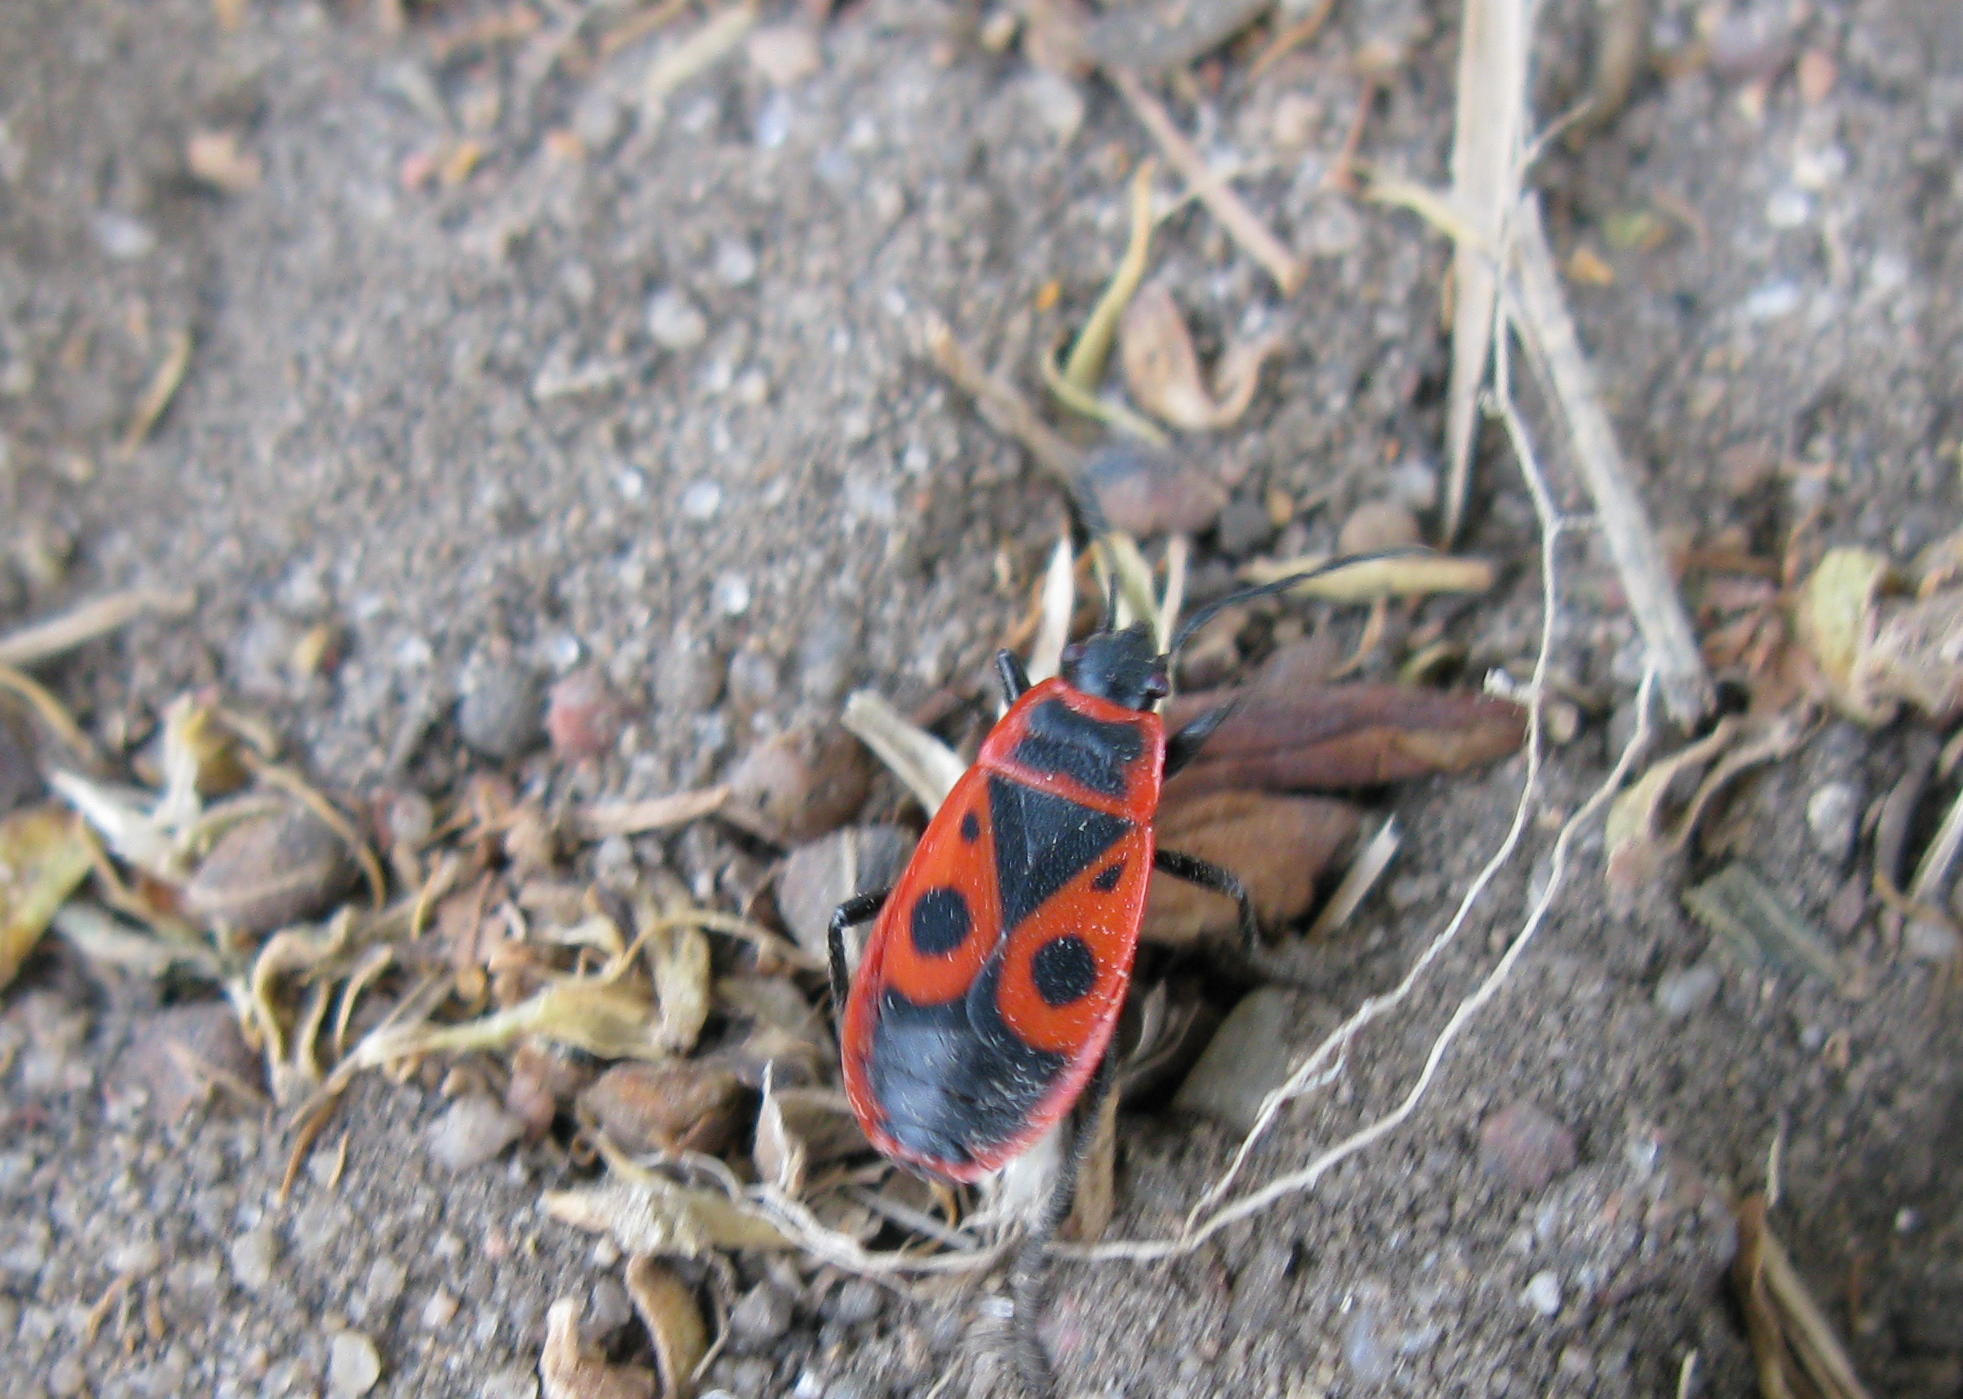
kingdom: Animalia
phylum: Arthropoda
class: Insecta
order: Hemiptera
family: Pyrrhocoridae
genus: Pyrrhocoris
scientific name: Pyrrhocoris apterus
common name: Firebug
